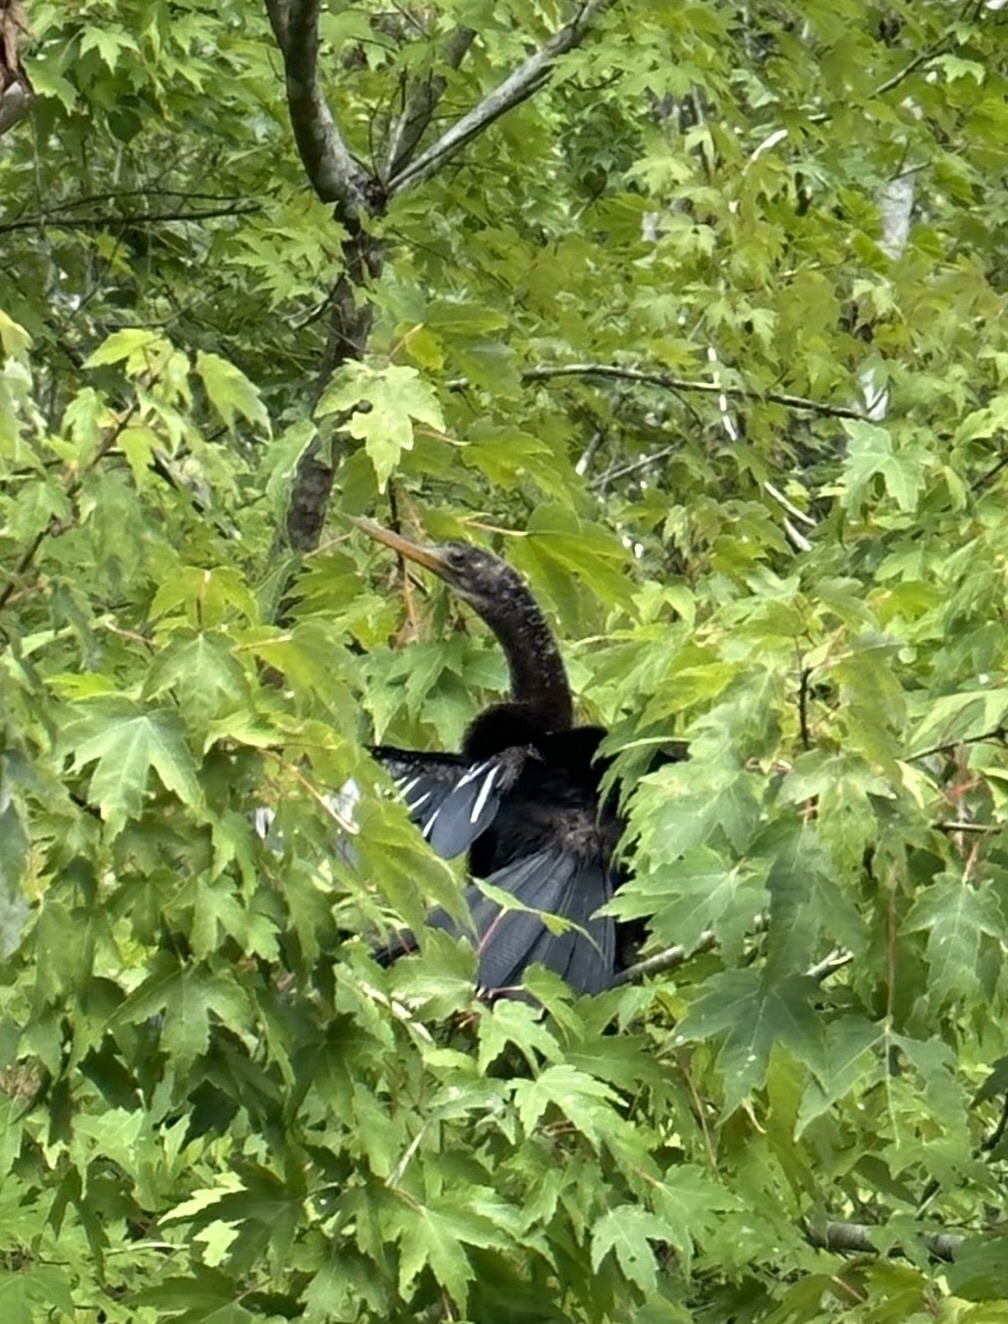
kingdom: Animalia
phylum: Chordata
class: Aves
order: Suliformes
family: Anhingidae
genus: Anhinga
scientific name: Anhinga anhinga
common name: Anhinga
